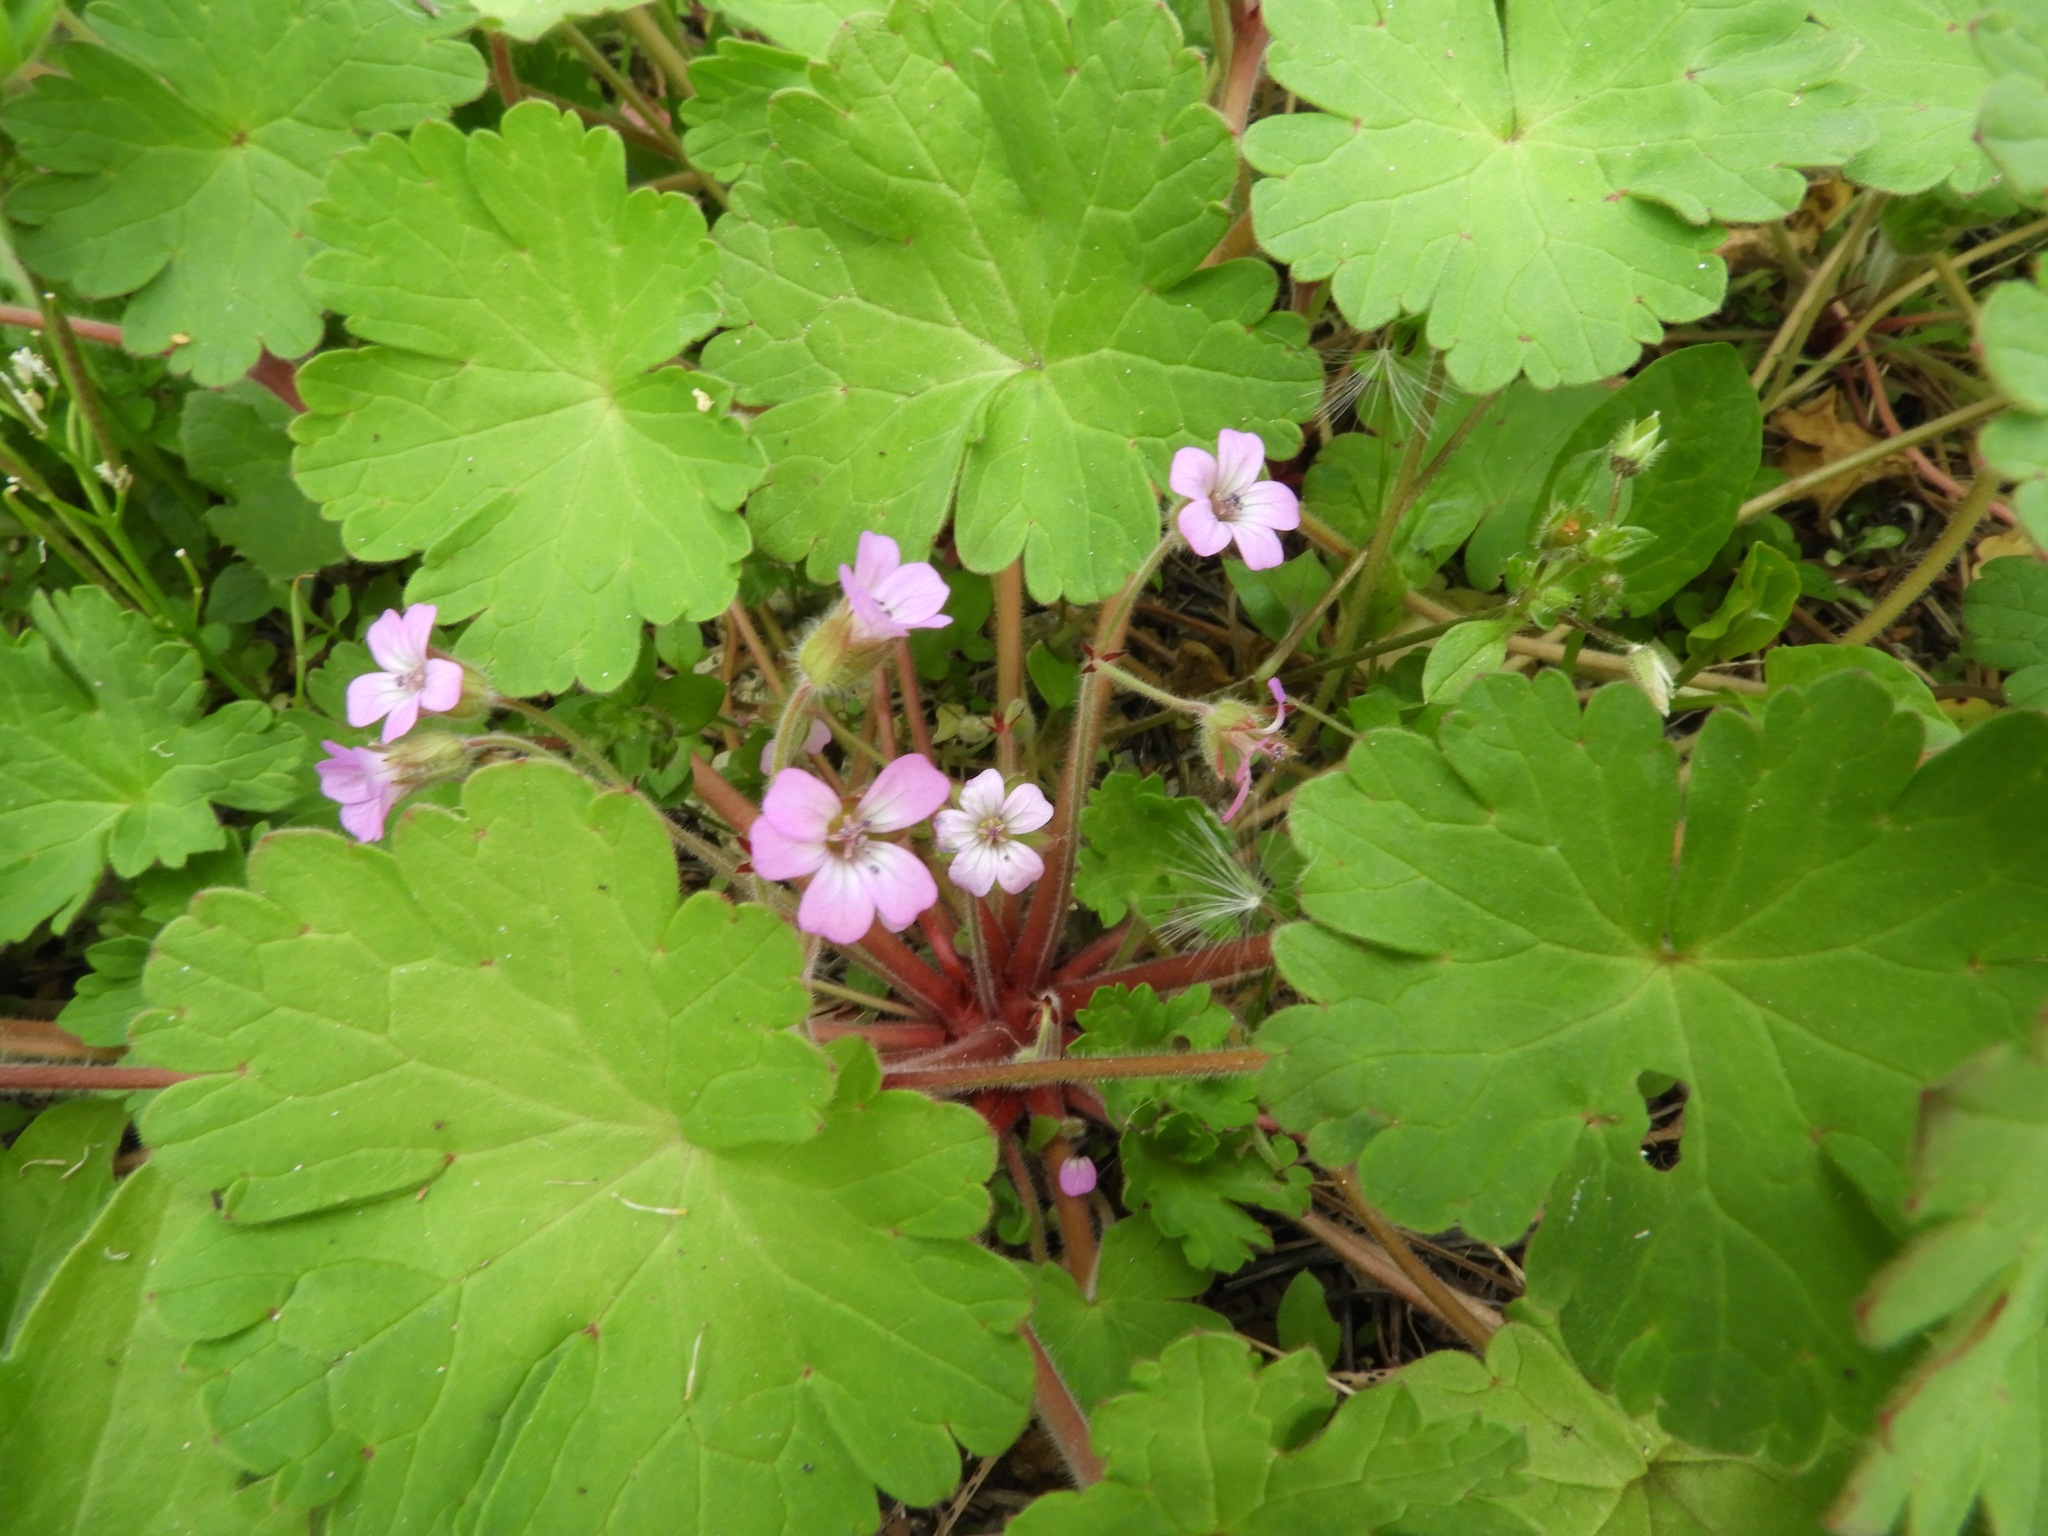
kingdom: Plantae
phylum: Tracheophyta
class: Magnoliopsida
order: Geraniales
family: Geraniaceae
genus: Geranium
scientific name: Geranium rotundifolium
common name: Round-leaved crane's-bill
